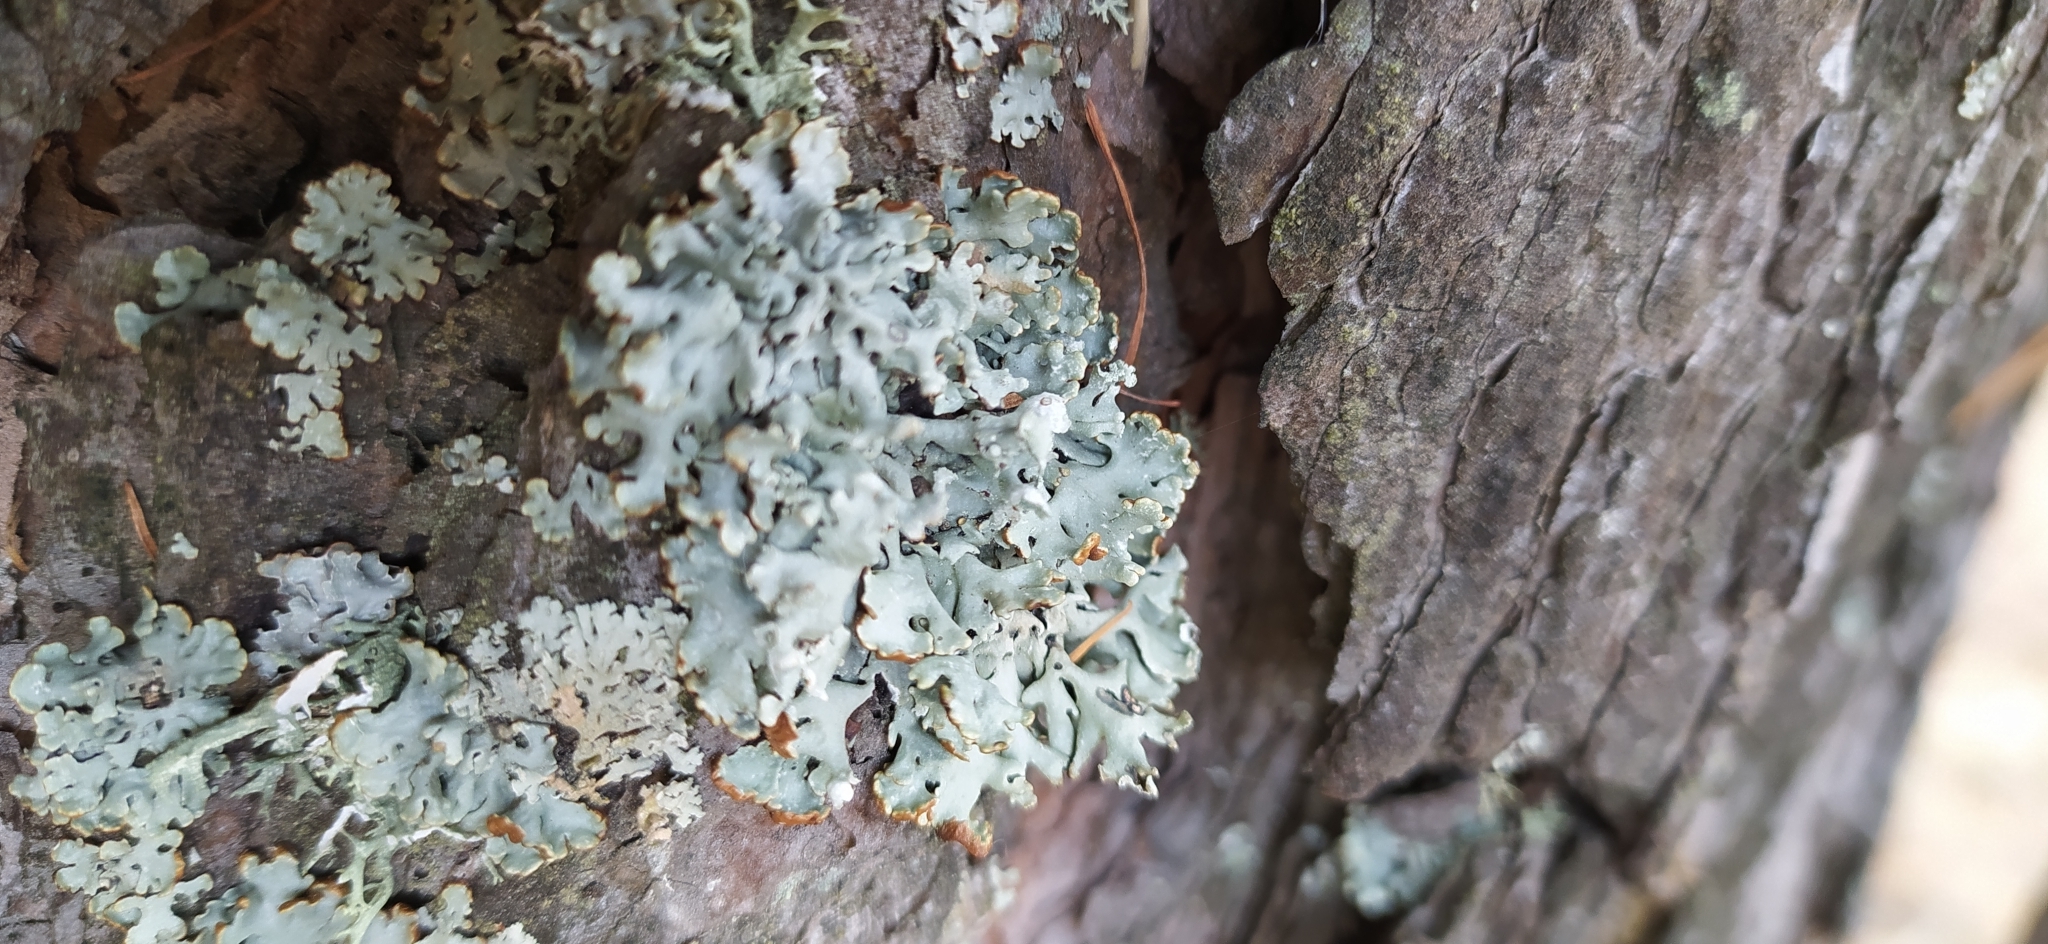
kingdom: Fungi
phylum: Ascomycota
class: Lecanoromycetes
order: Lecanorales
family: Parmeliaceae
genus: Hypogymnia
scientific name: Hypogymnia physodes
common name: Dark crottle
